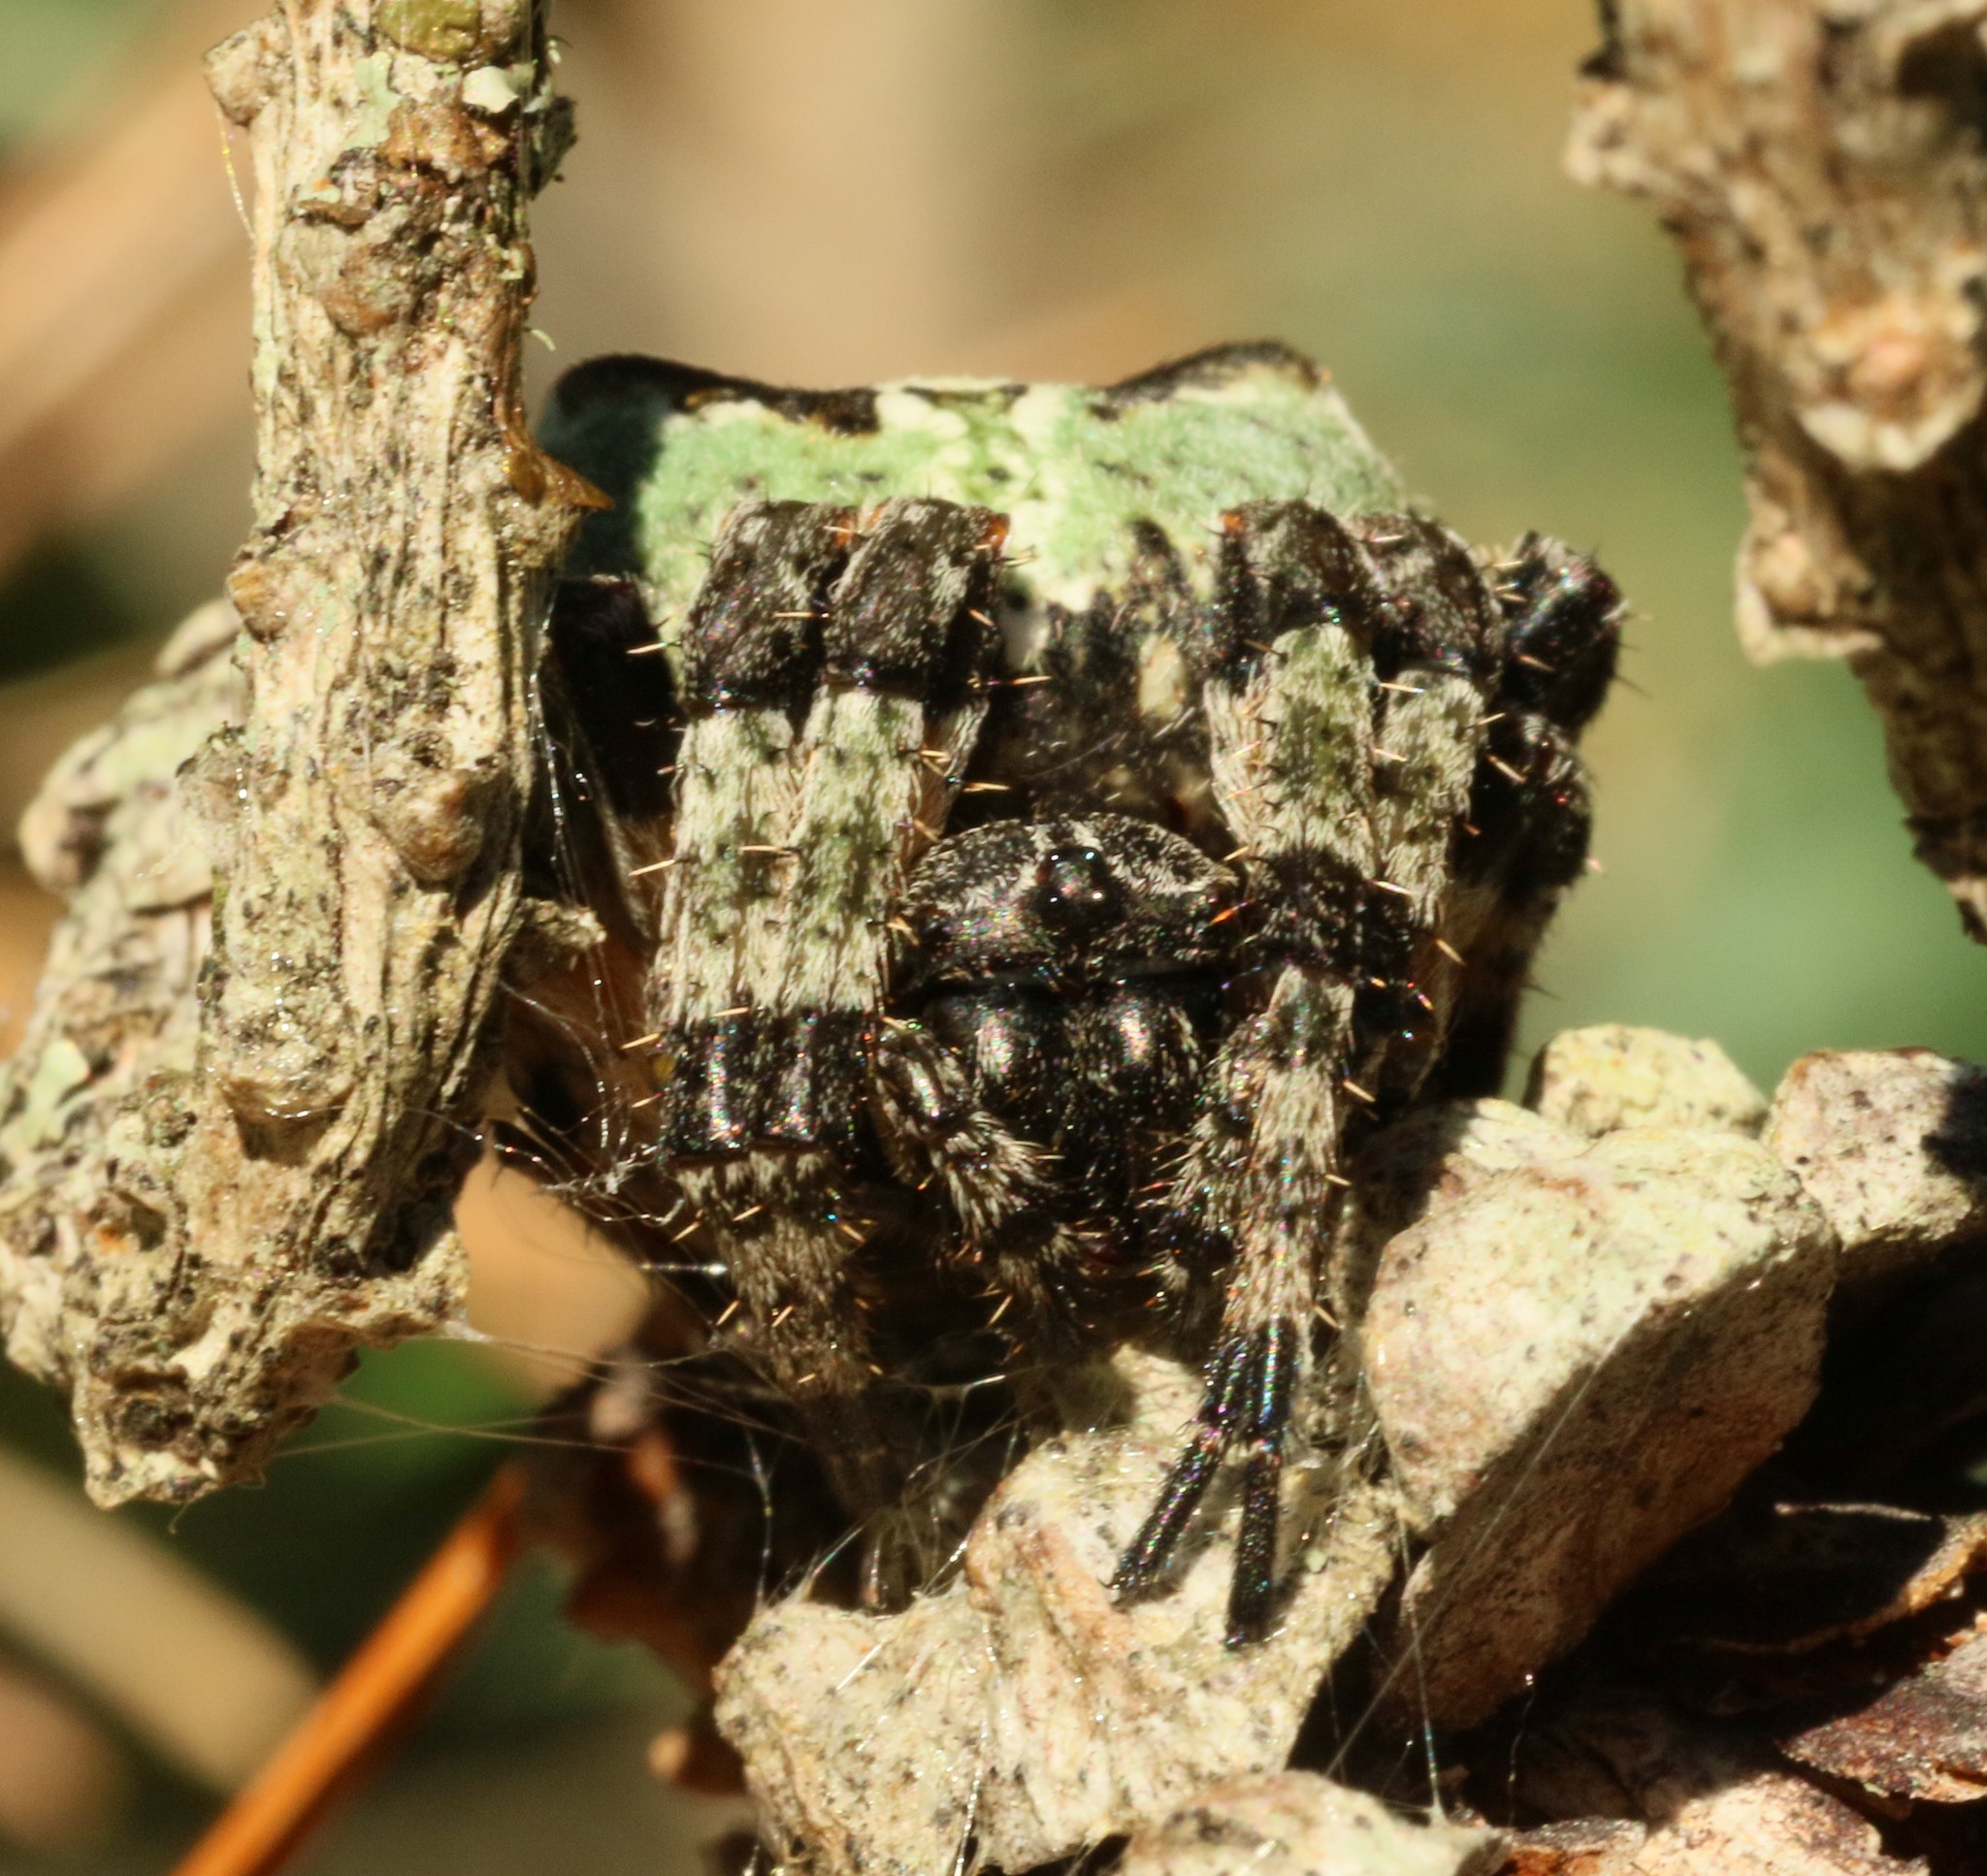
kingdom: Animalia
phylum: Arthropoda
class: Arachnida
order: Araneae
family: Araneidae
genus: Araneus
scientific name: Araneus bicentenarius
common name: Giant lichen orbweaver
